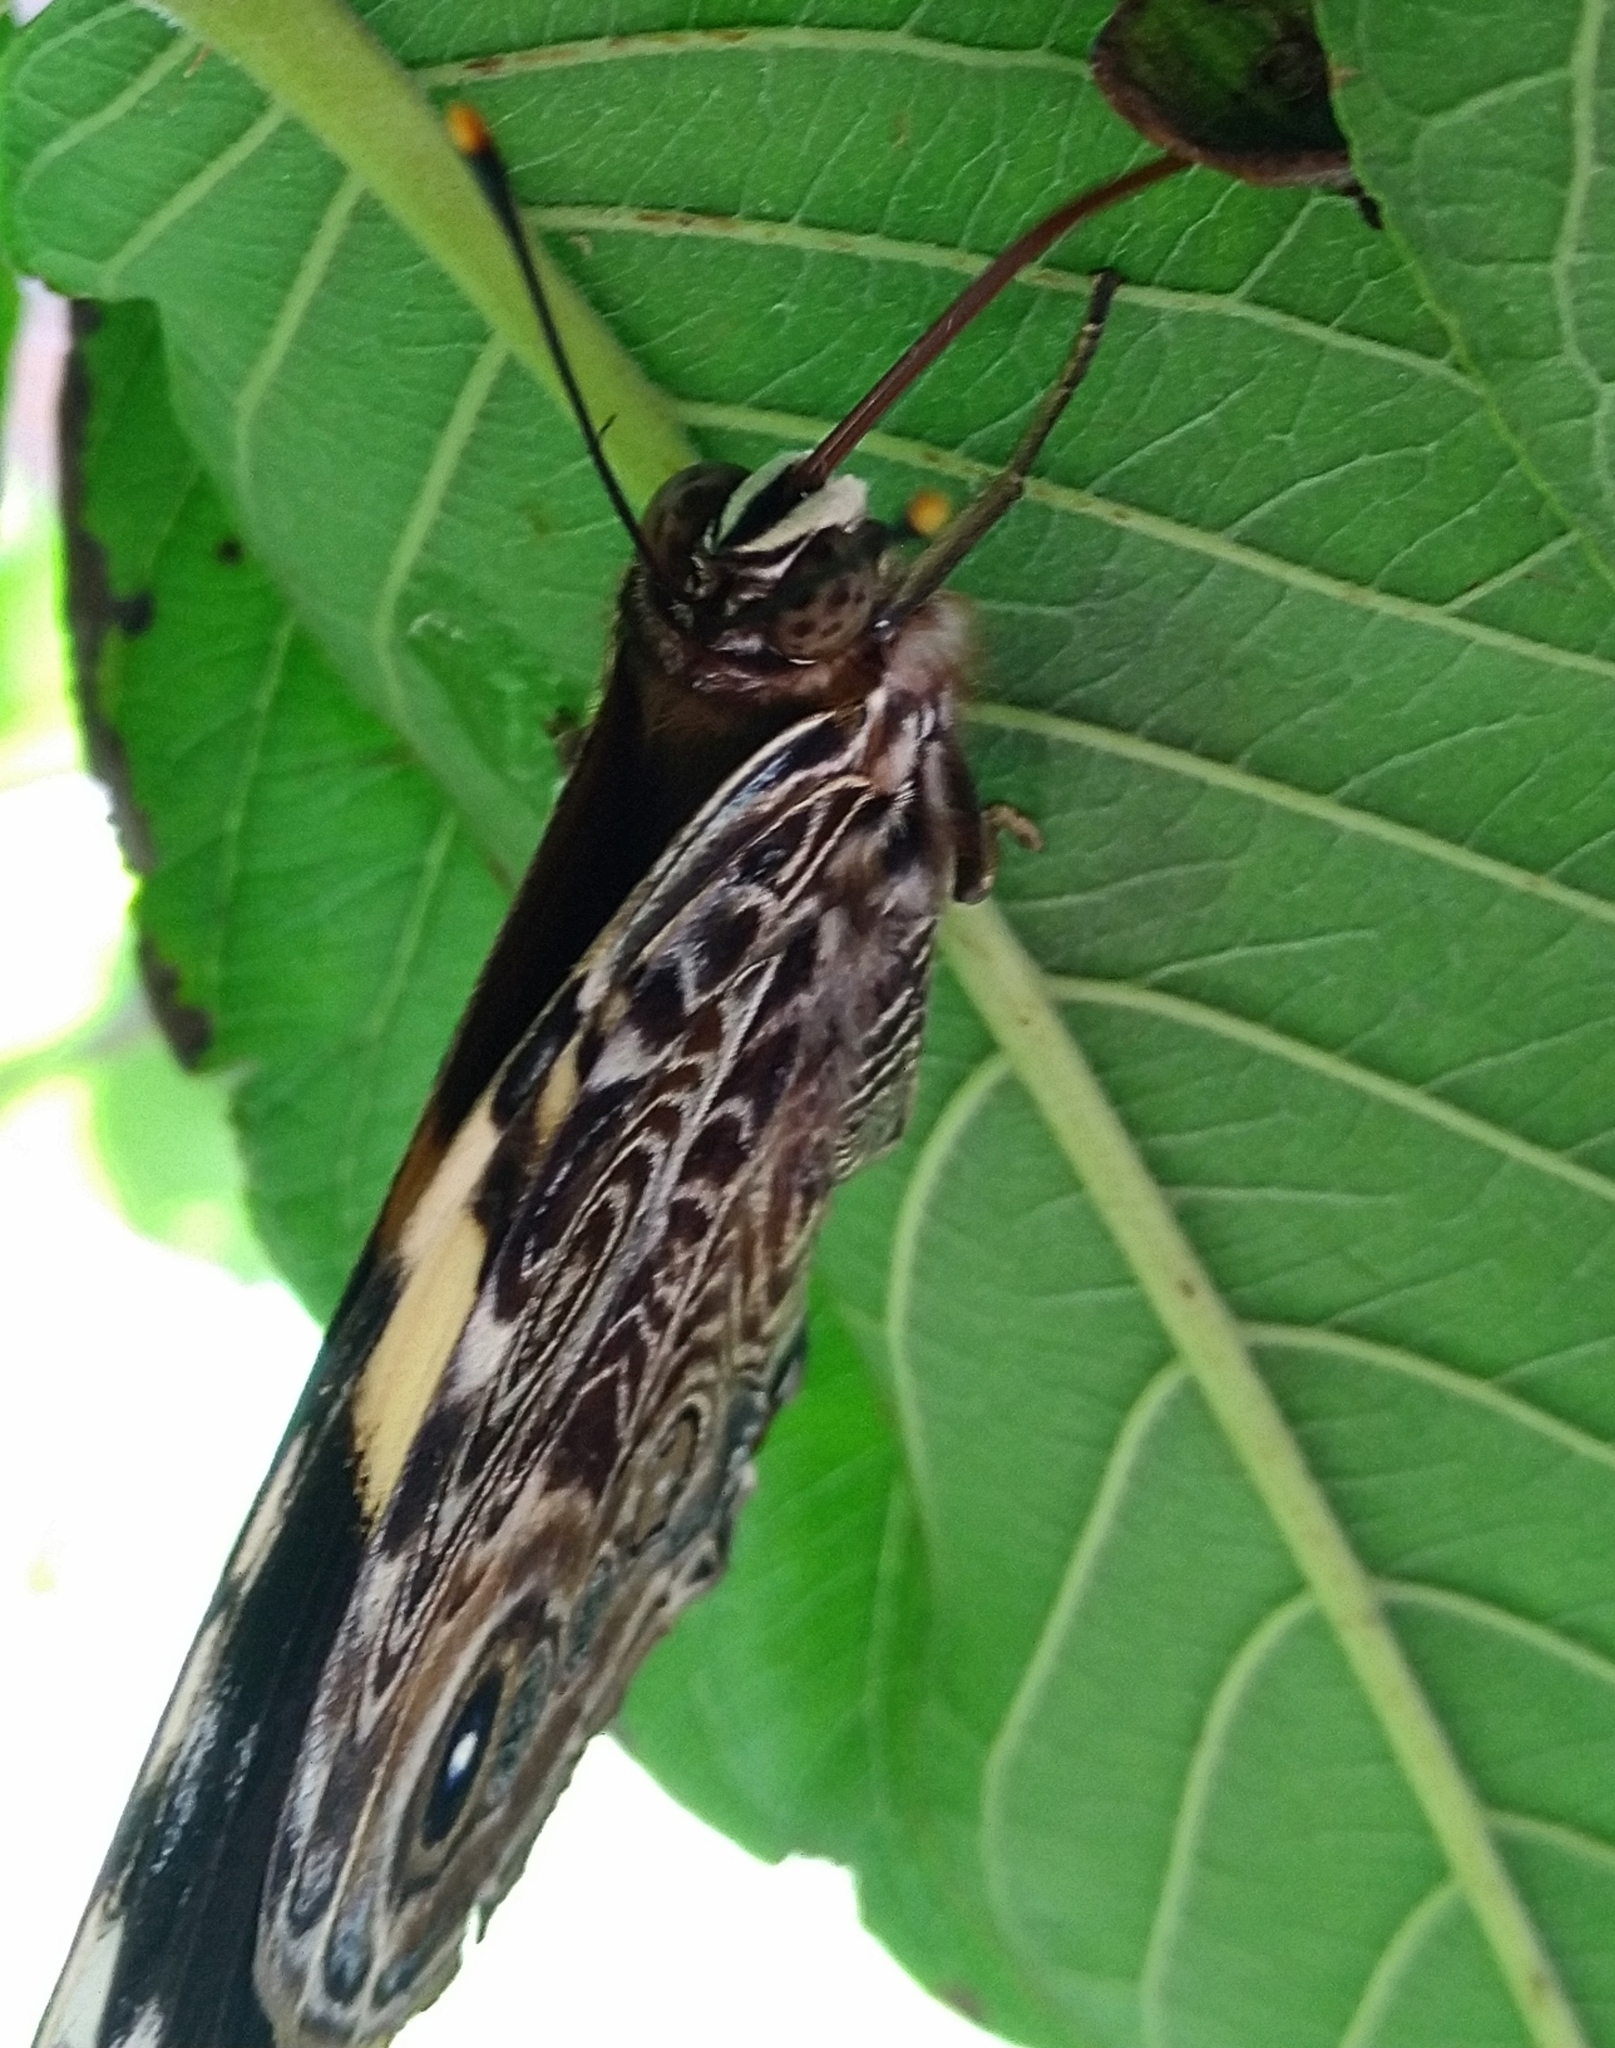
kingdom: Animalia
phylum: Arthropoda
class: Insecta
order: Lepidoptera
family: Nymphalidae
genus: Smyrna
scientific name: Smyrna blomfildia
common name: Blomfild's beauty
